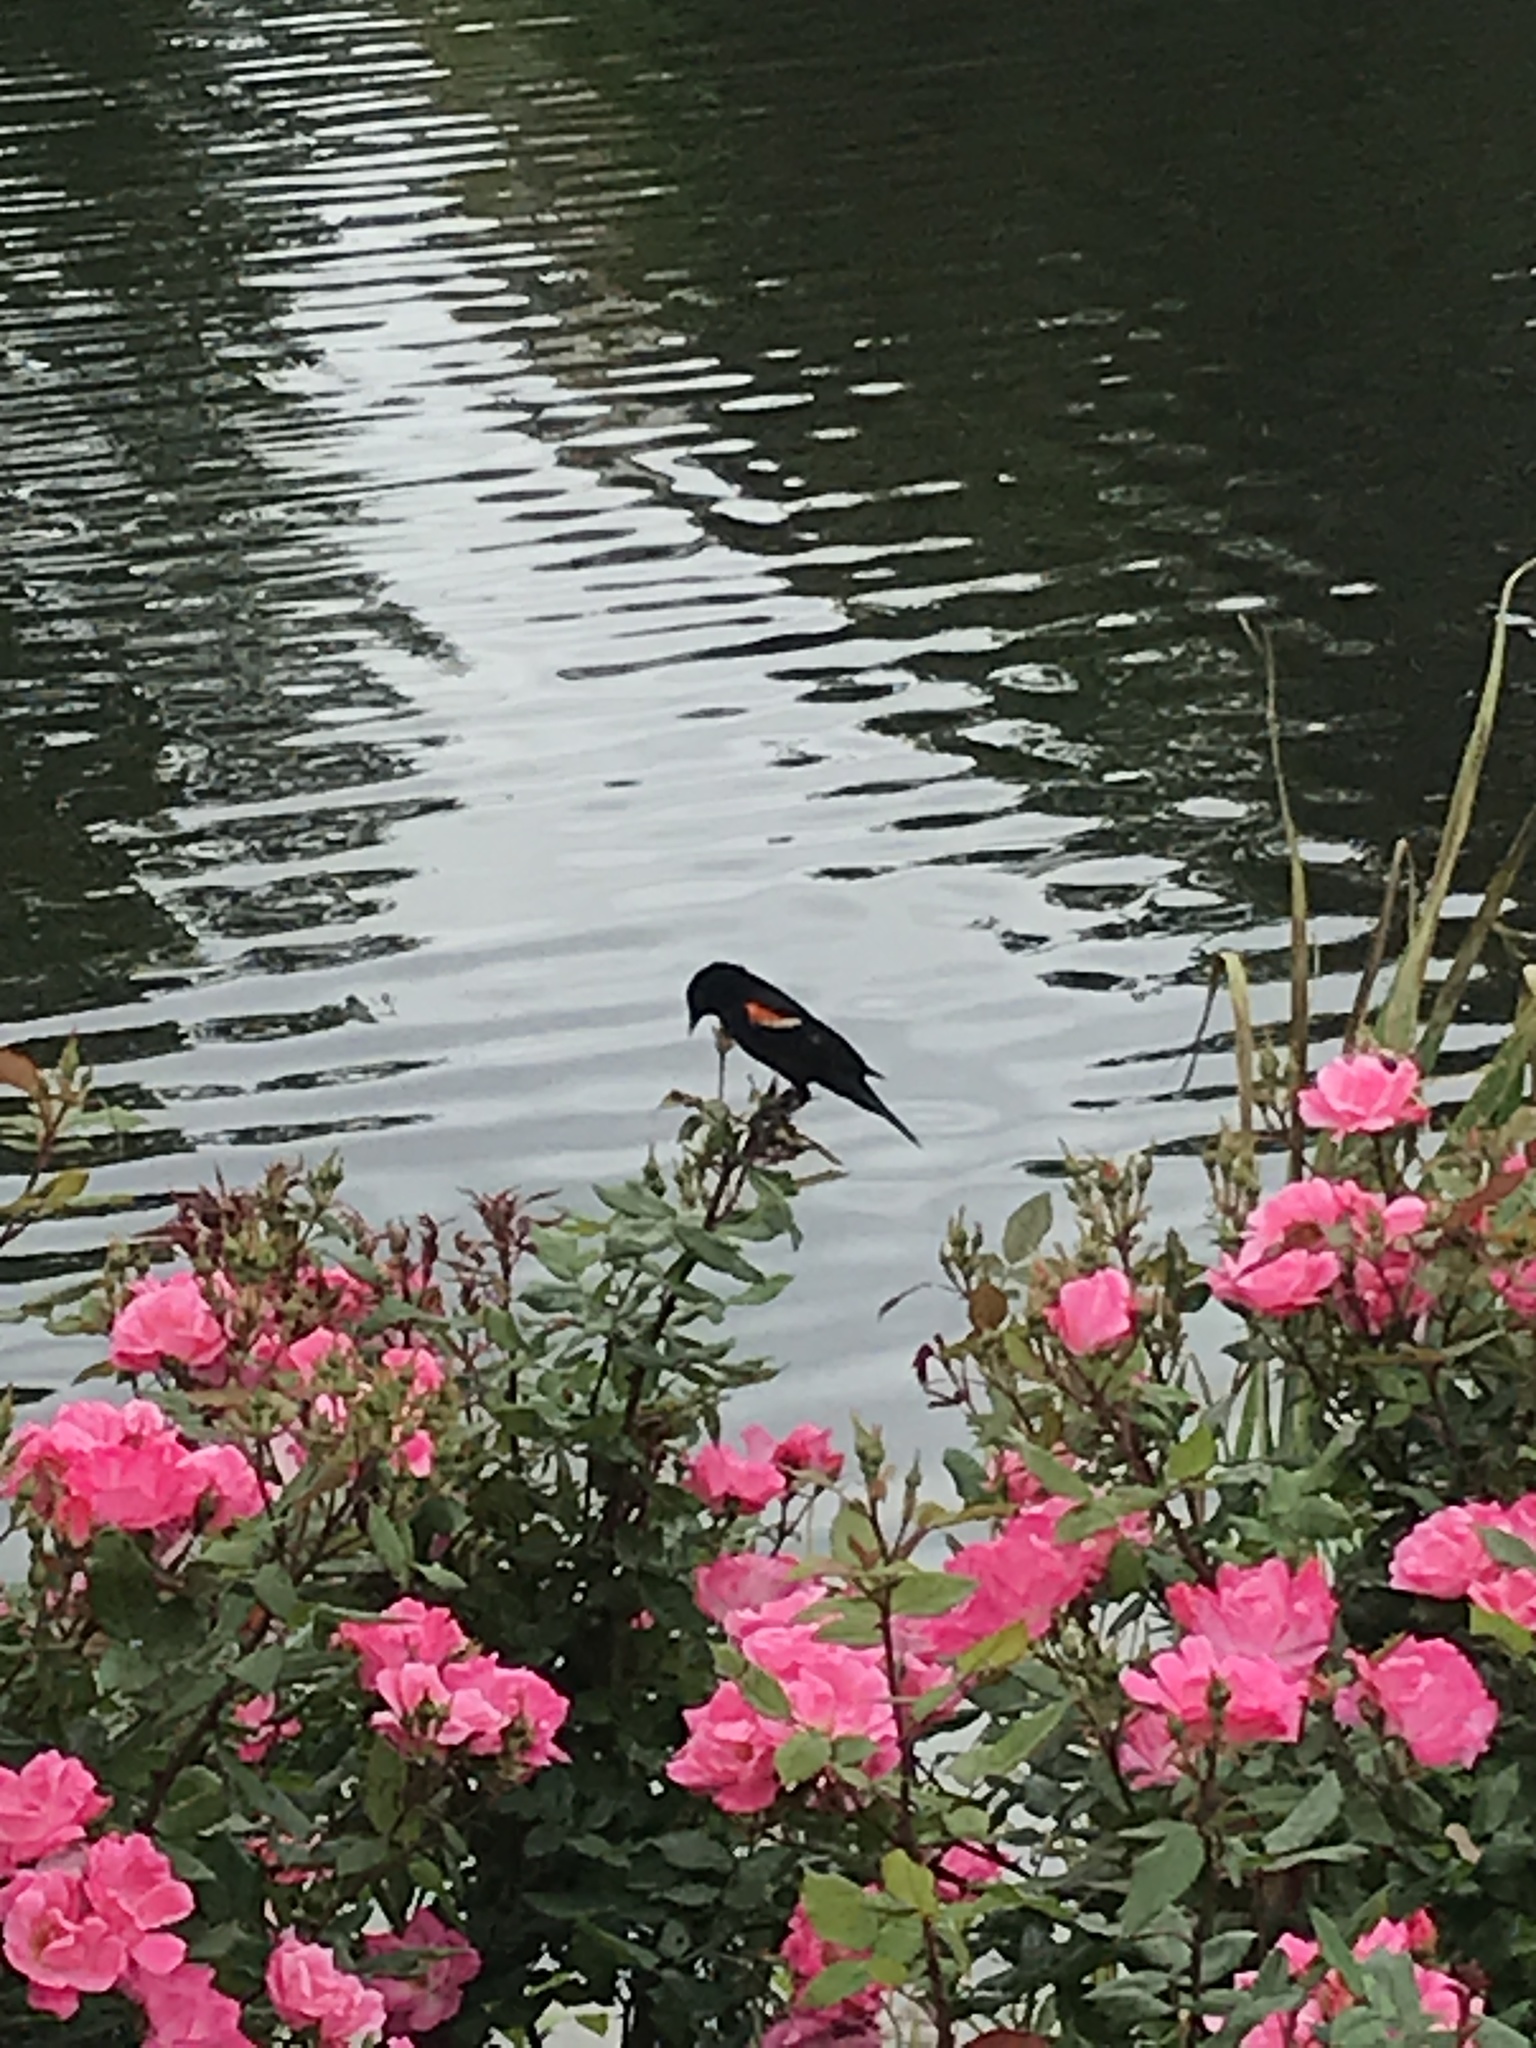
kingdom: Animalia
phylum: Chordata
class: Aves
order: Passeriformes
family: Icteridae
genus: Agelaius
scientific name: Agelaius phoeniceus
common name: Red-winged blackbird
